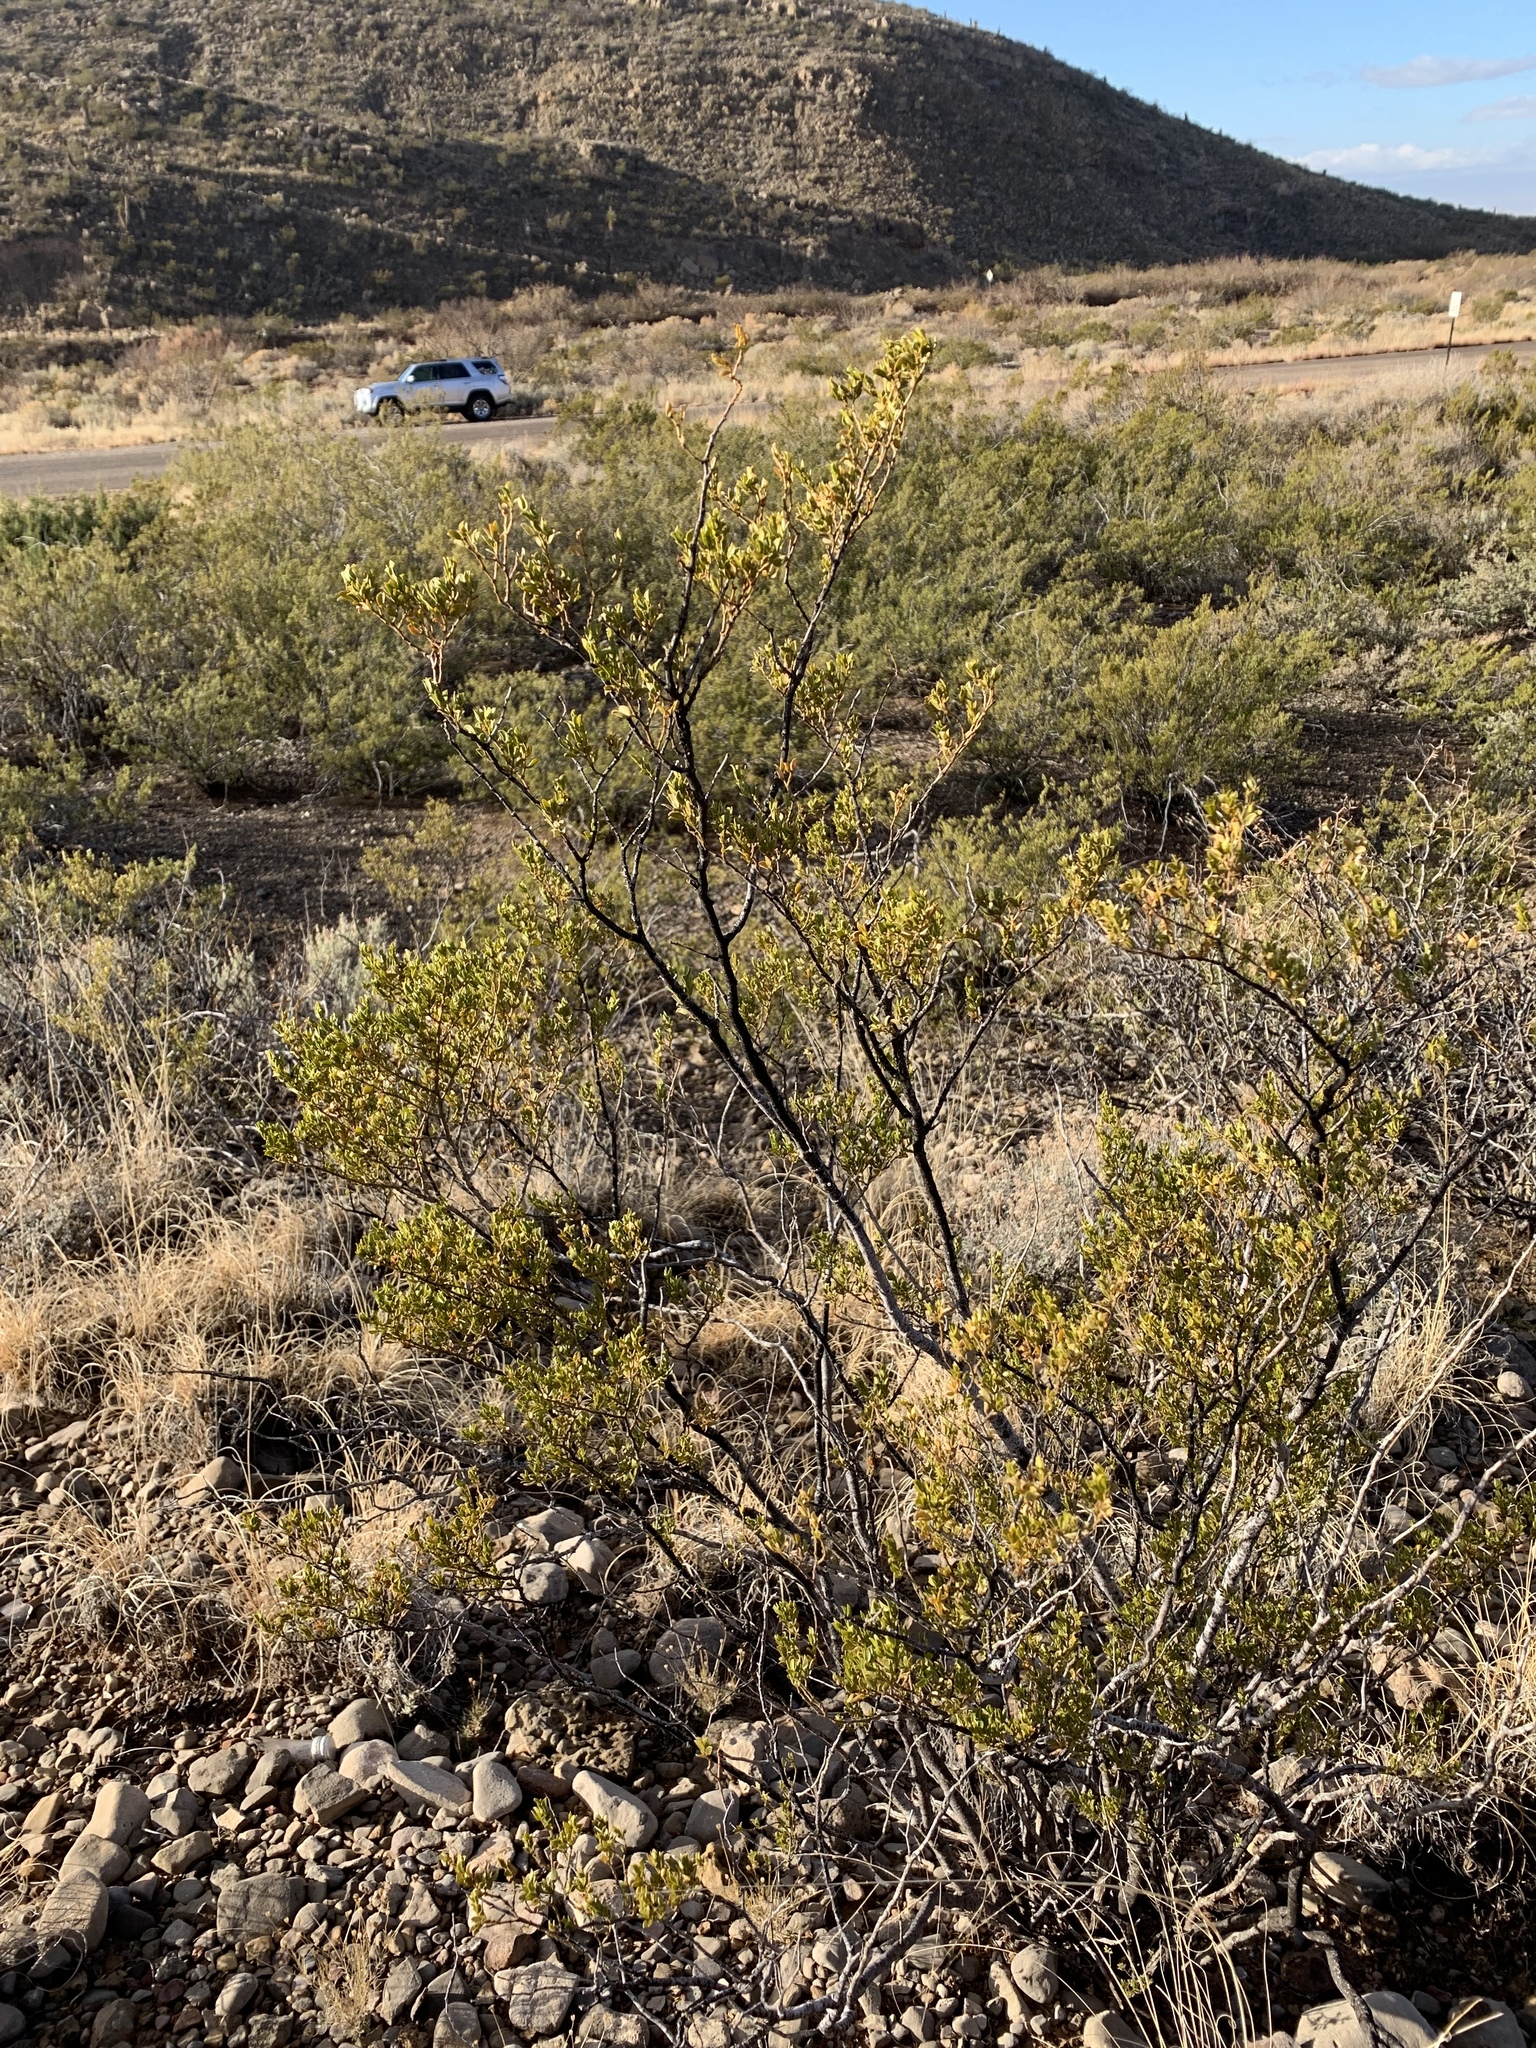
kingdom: Plantae
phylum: Tracheophyta
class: Magnoliopsida
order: Zygophyllales
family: Zygophyllaceae
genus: Larrea
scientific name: Larrea tridentata
